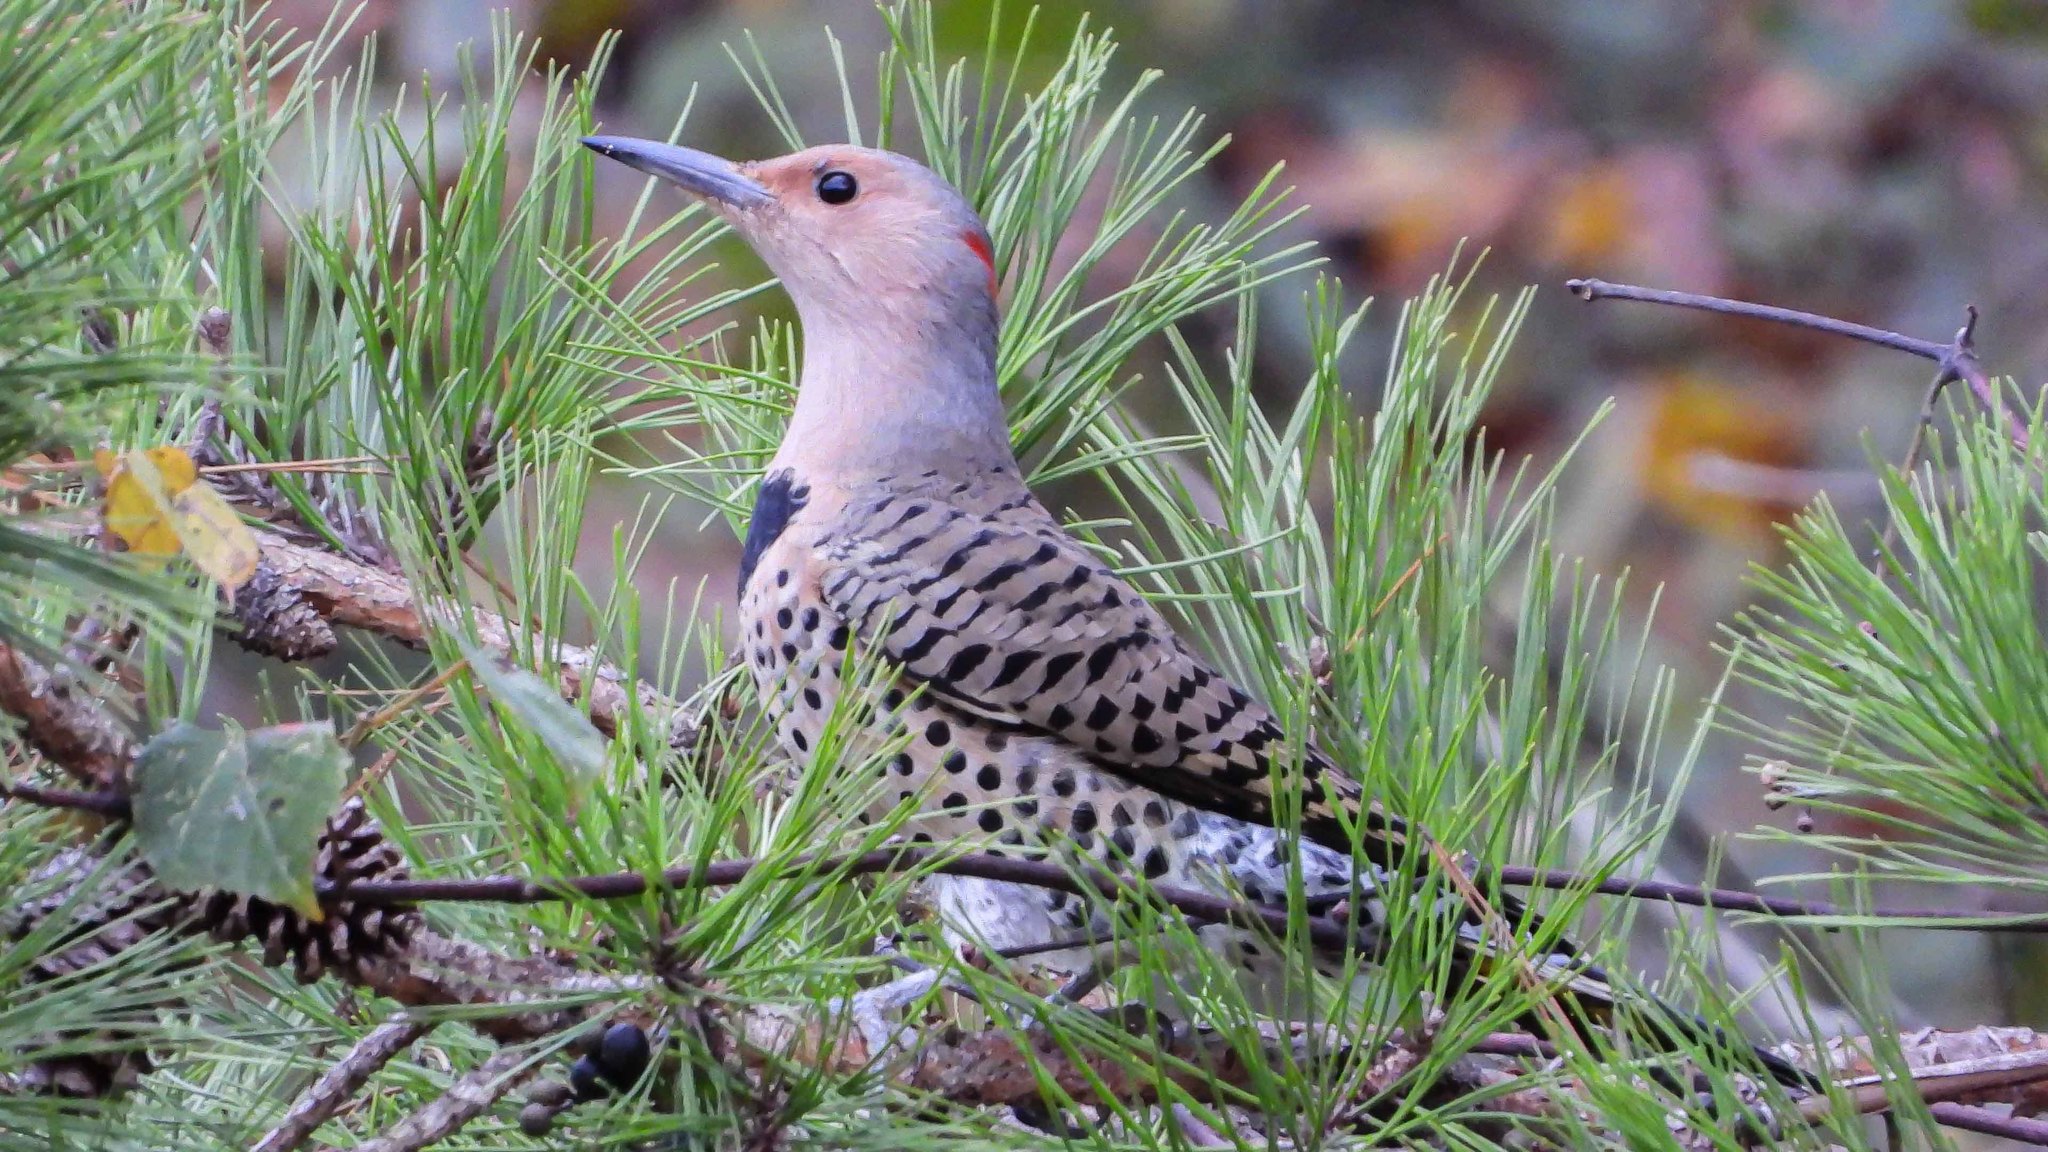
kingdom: Animalia
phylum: Chordata
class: Aves
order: Piciformes
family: Picidae
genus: Colaptes
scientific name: Colaptes auratus
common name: Northern flicker
